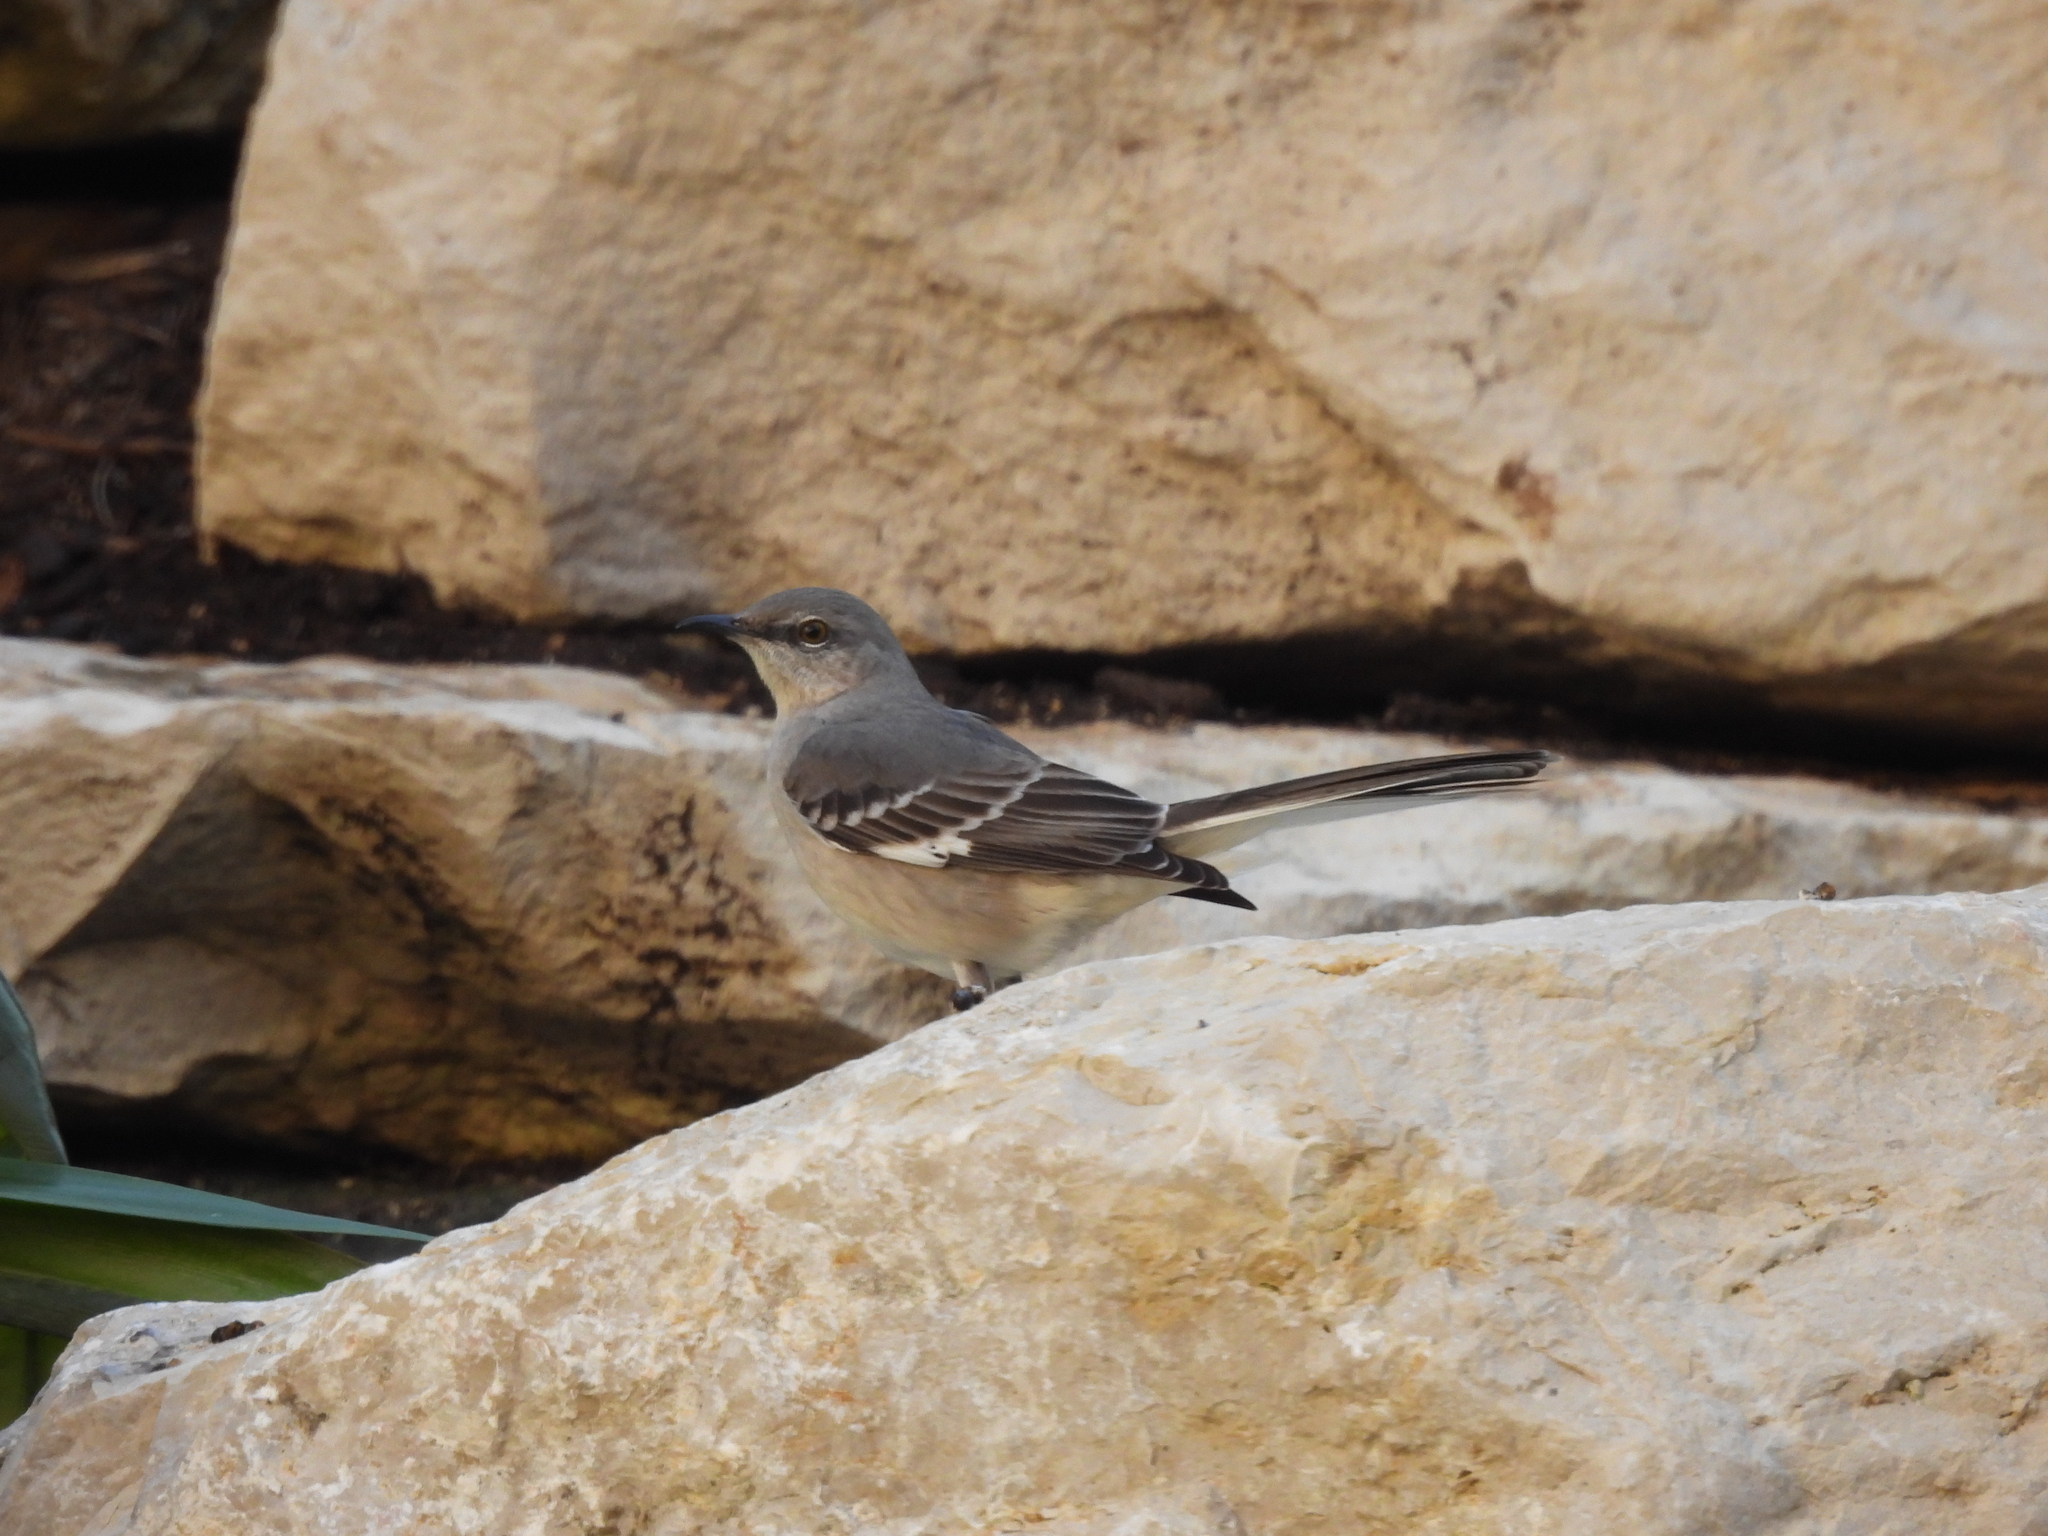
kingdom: Animalia
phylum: Chordata
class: Aves
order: Passeriformes
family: Mimidae
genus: Mimus
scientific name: Mimus polyglottos
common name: Northern mockingbird
